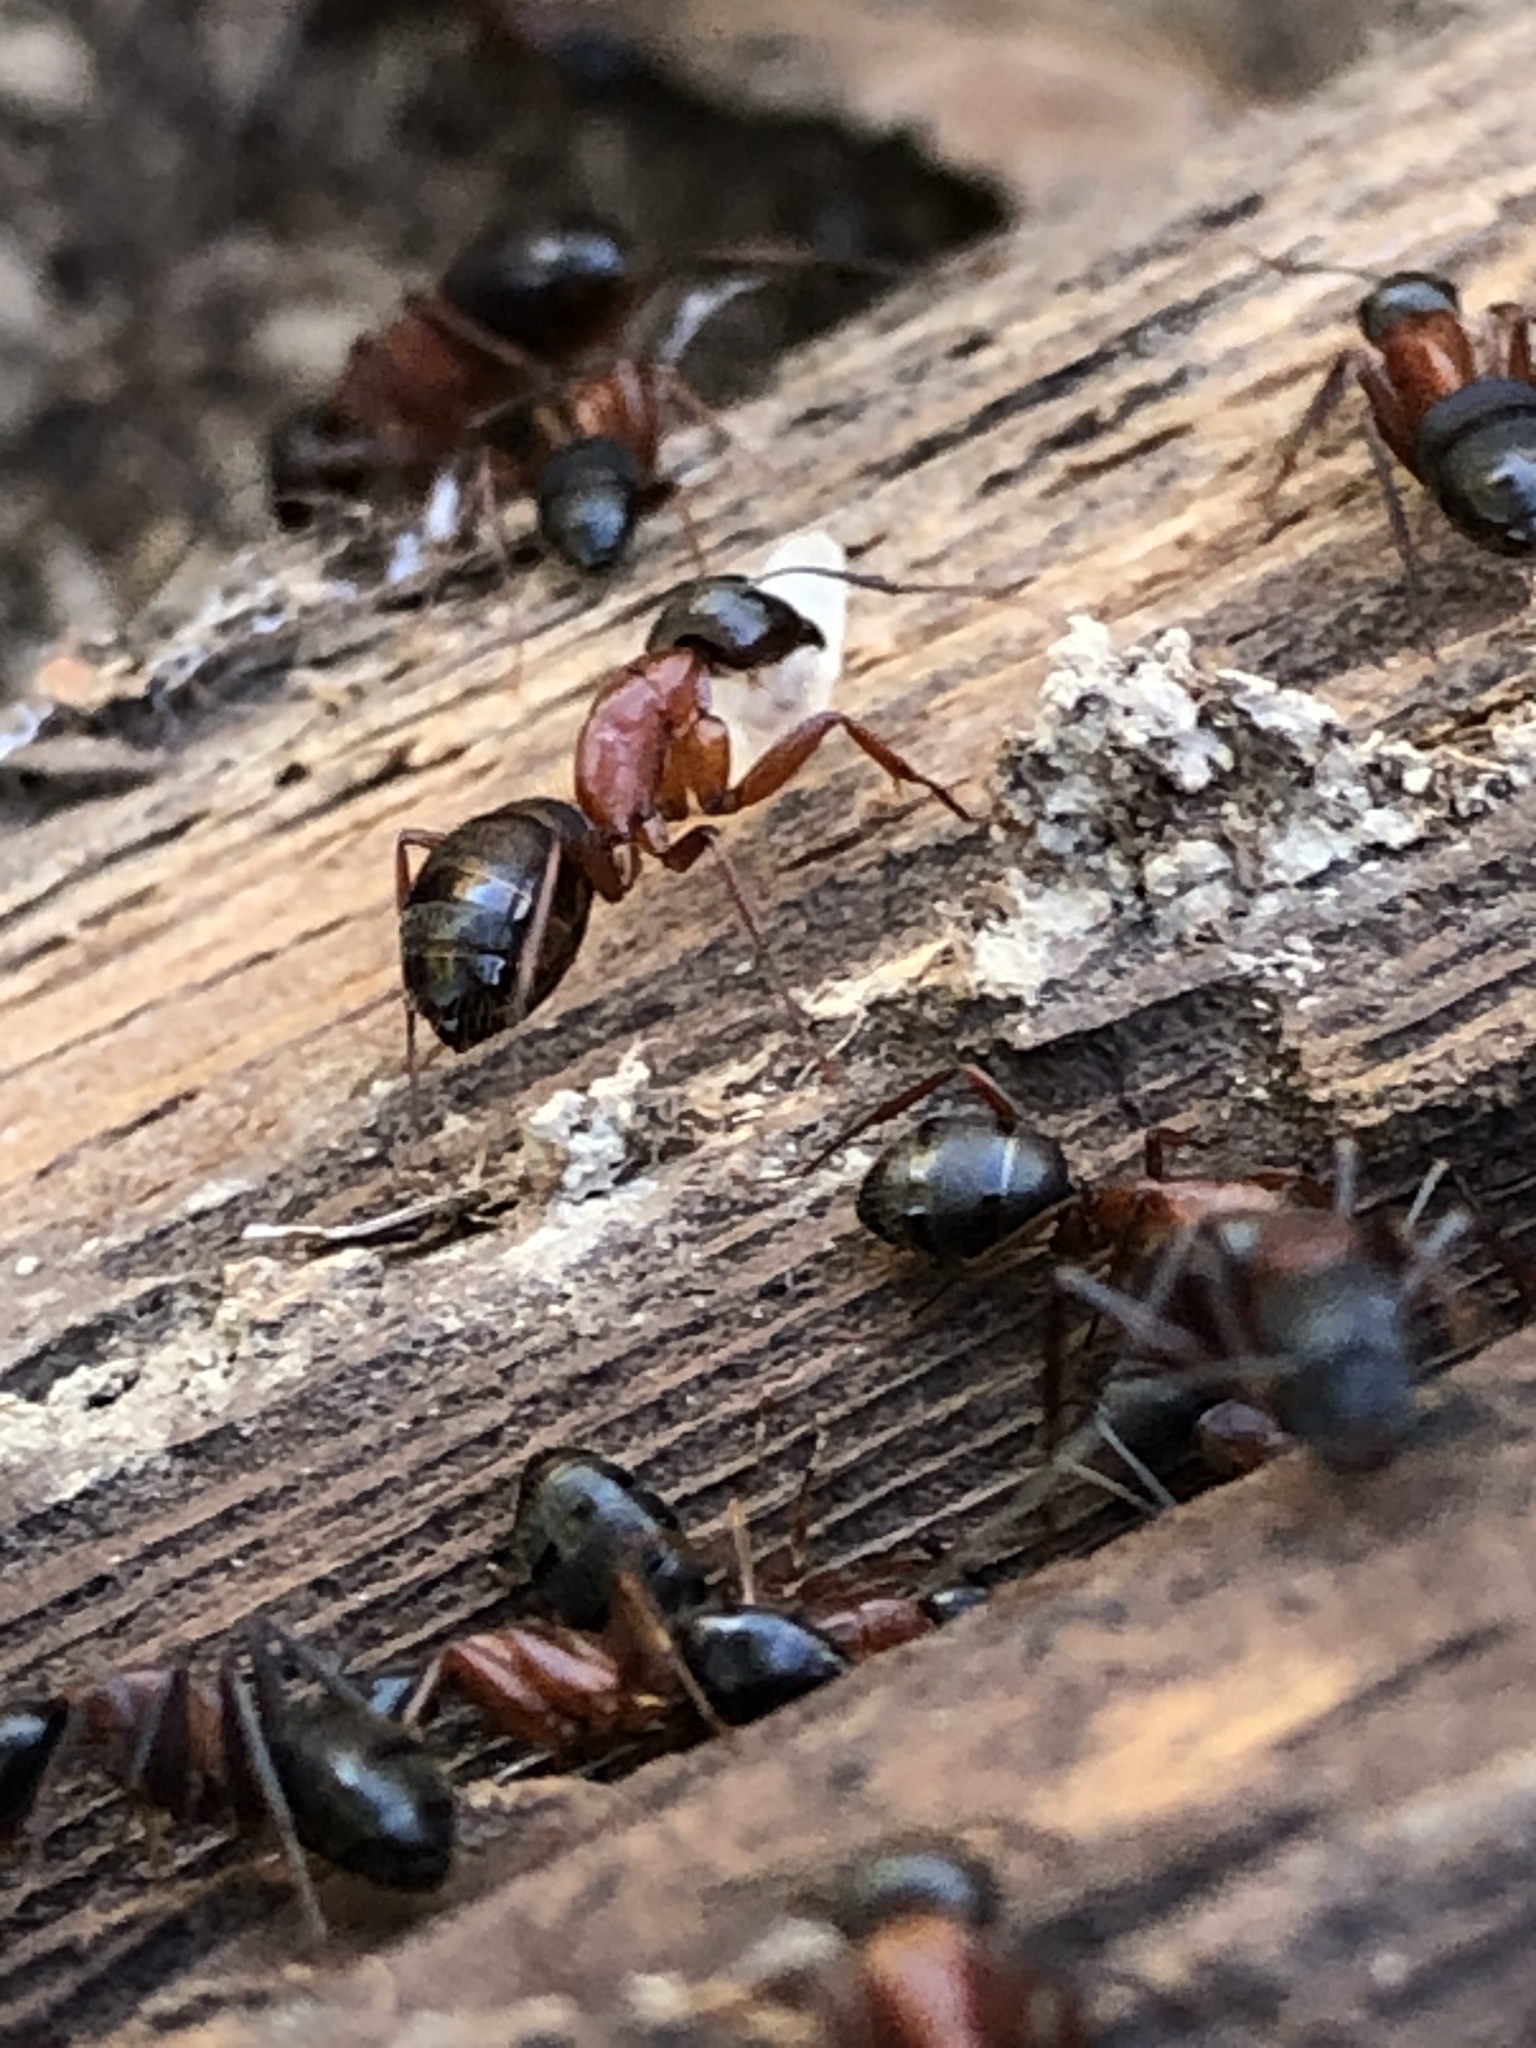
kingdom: Animalia
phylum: Arthropoda
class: Insecta
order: Hymenoptera
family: Formicidae
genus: Camponotus
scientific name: Camponotus vicinus
